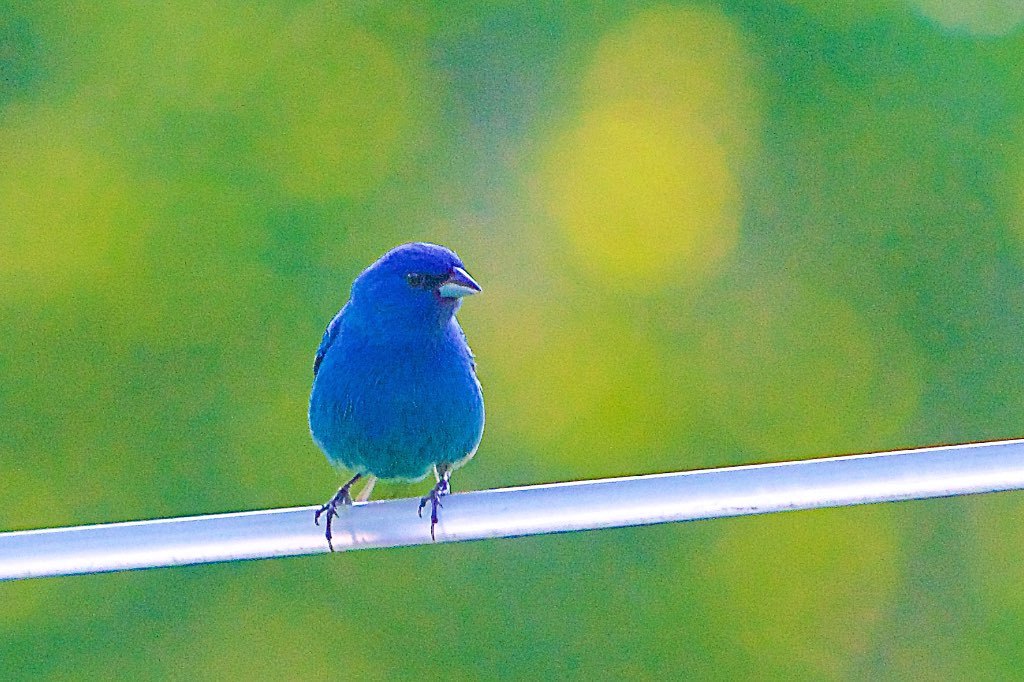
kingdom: Animalia
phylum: Chordata
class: Aves
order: Passeriformes
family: Cardinalidae
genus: Passerina
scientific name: Passerina cyanea
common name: Indigo bunting
